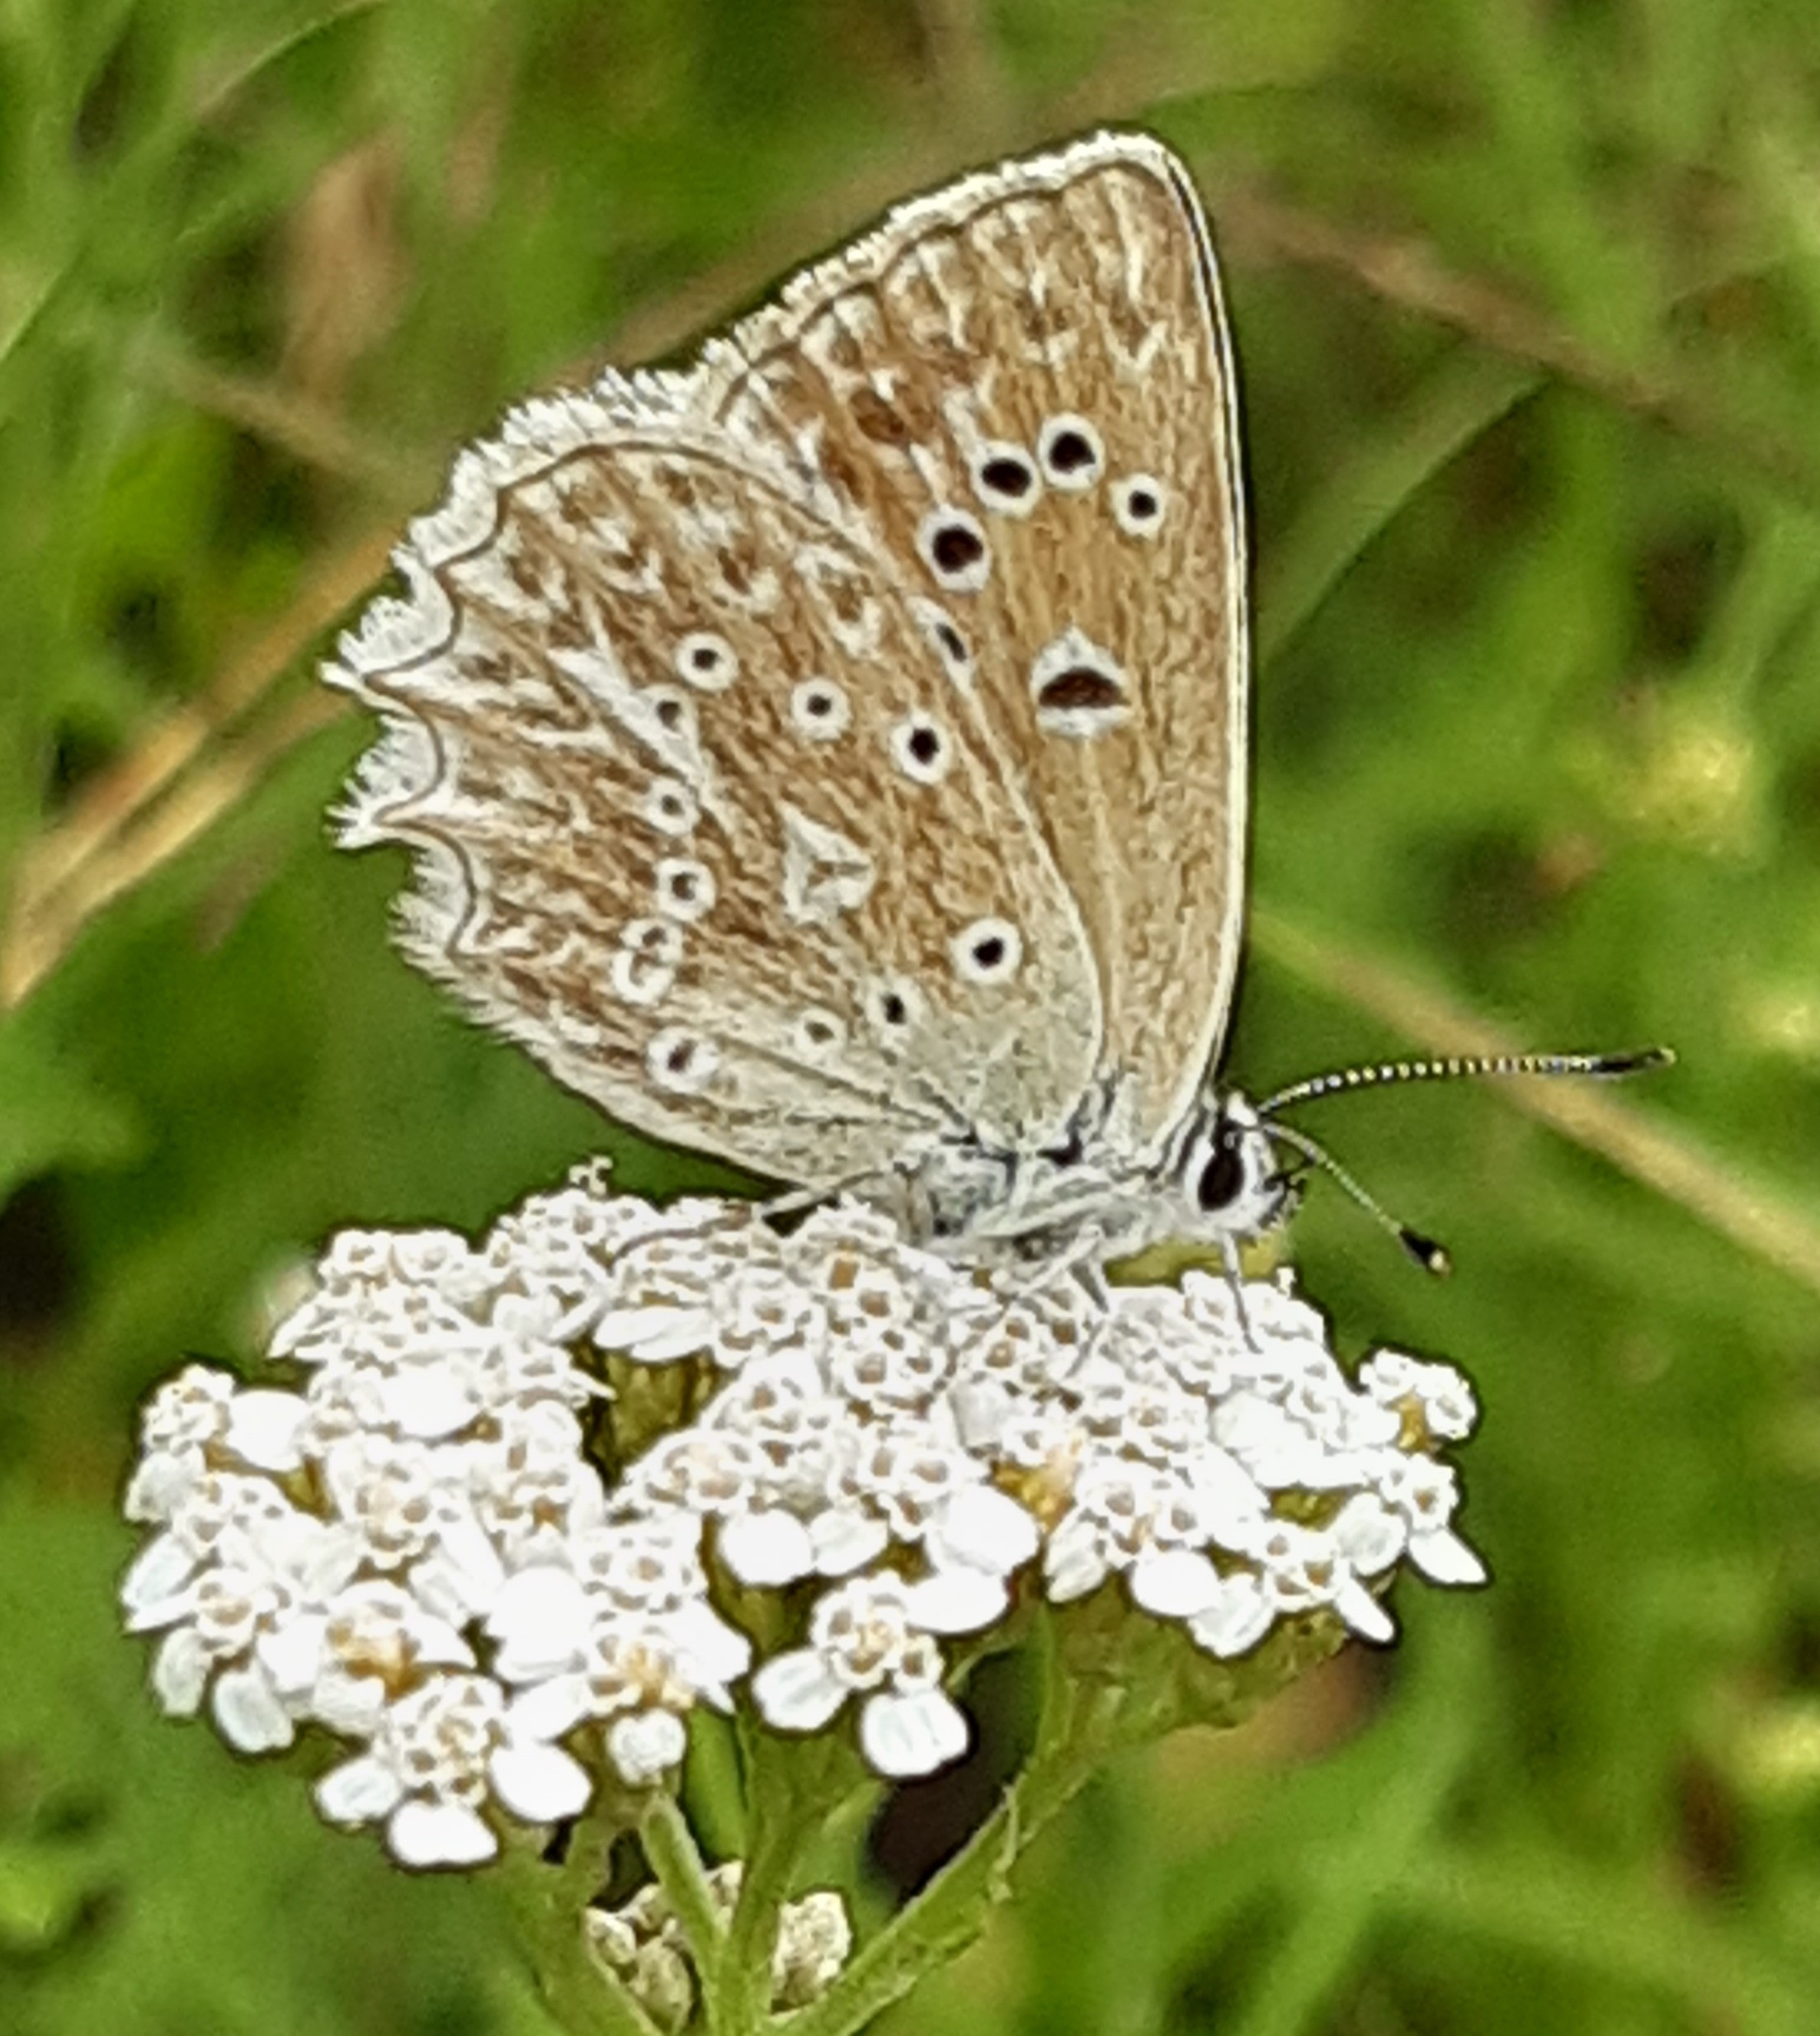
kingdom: Animalia
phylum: Arthropoda
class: Insecta
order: Lepidoptera
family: Lycaenidae
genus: Polyommatus
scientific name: Polyommatus daphnis
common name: Meleager's blue
